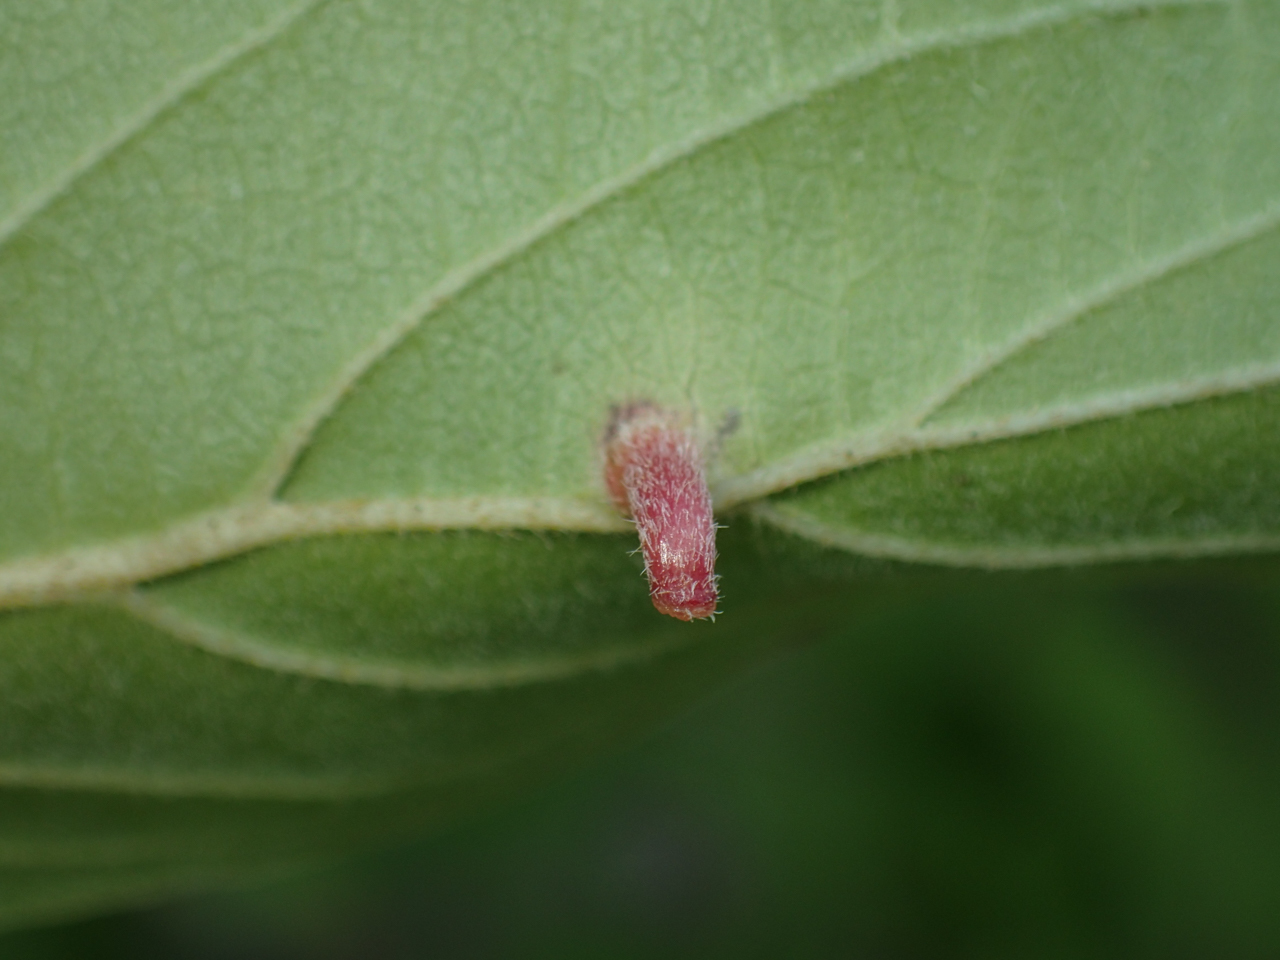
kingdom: Animalia
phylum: Arthropoda
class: Insecta
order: Diptera
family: Cecidomyiidae
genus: Dasineura
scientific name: Dasineura tuba
